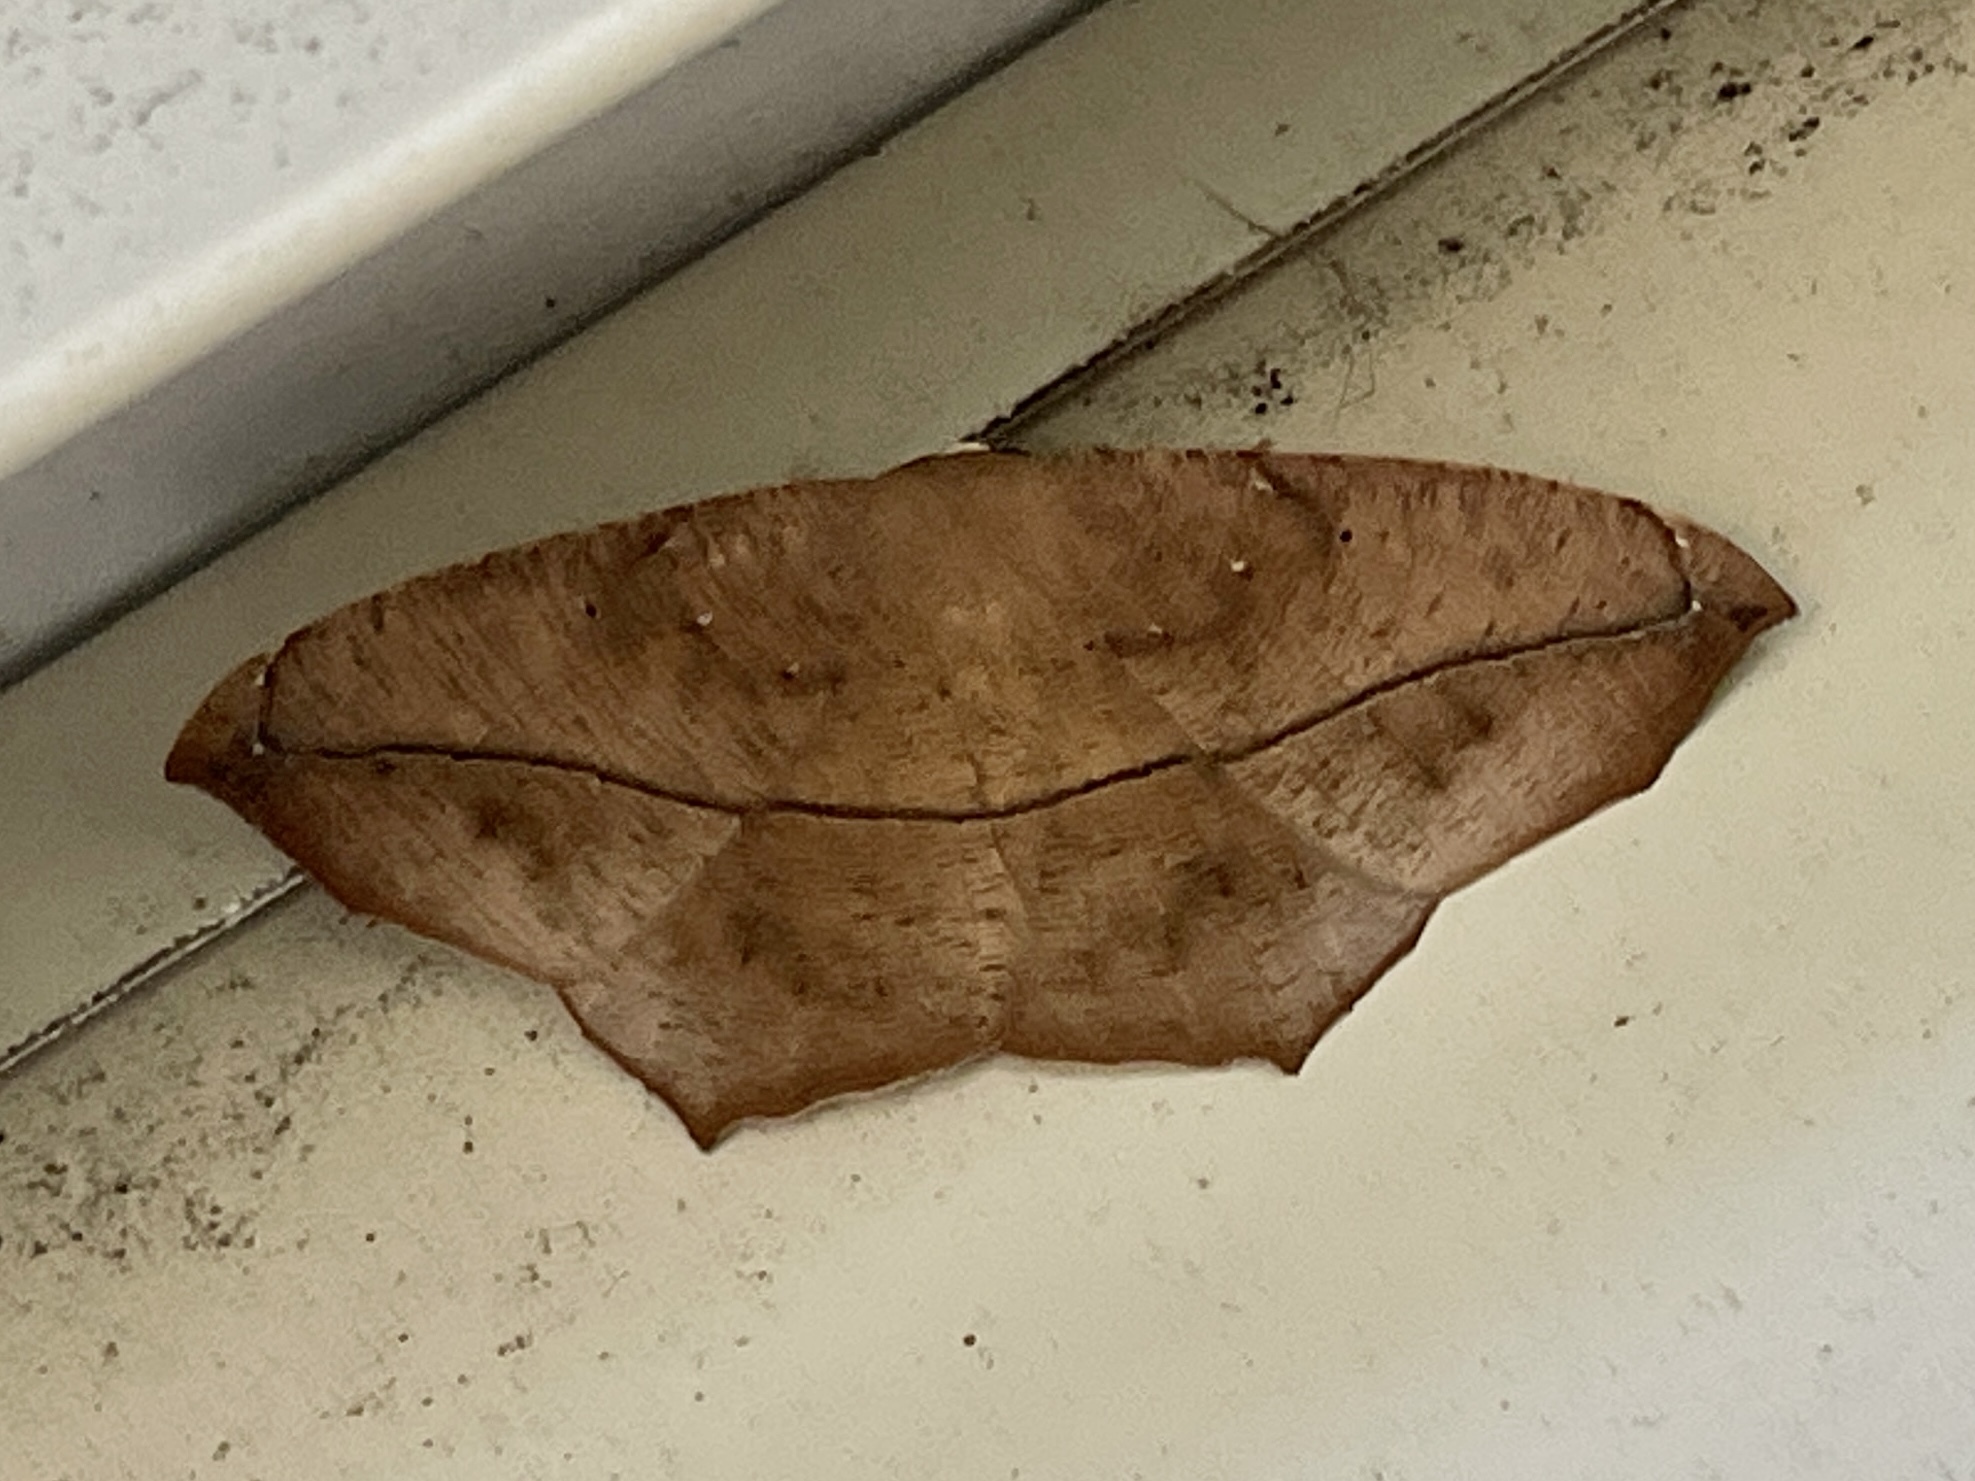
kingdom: Animalia
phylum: Arthropoda
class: Insecta
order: Lepidoptera
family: Geometridae
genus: Prochoerodes
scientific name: Prochoerodes lineola
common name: Large maple spanworm
